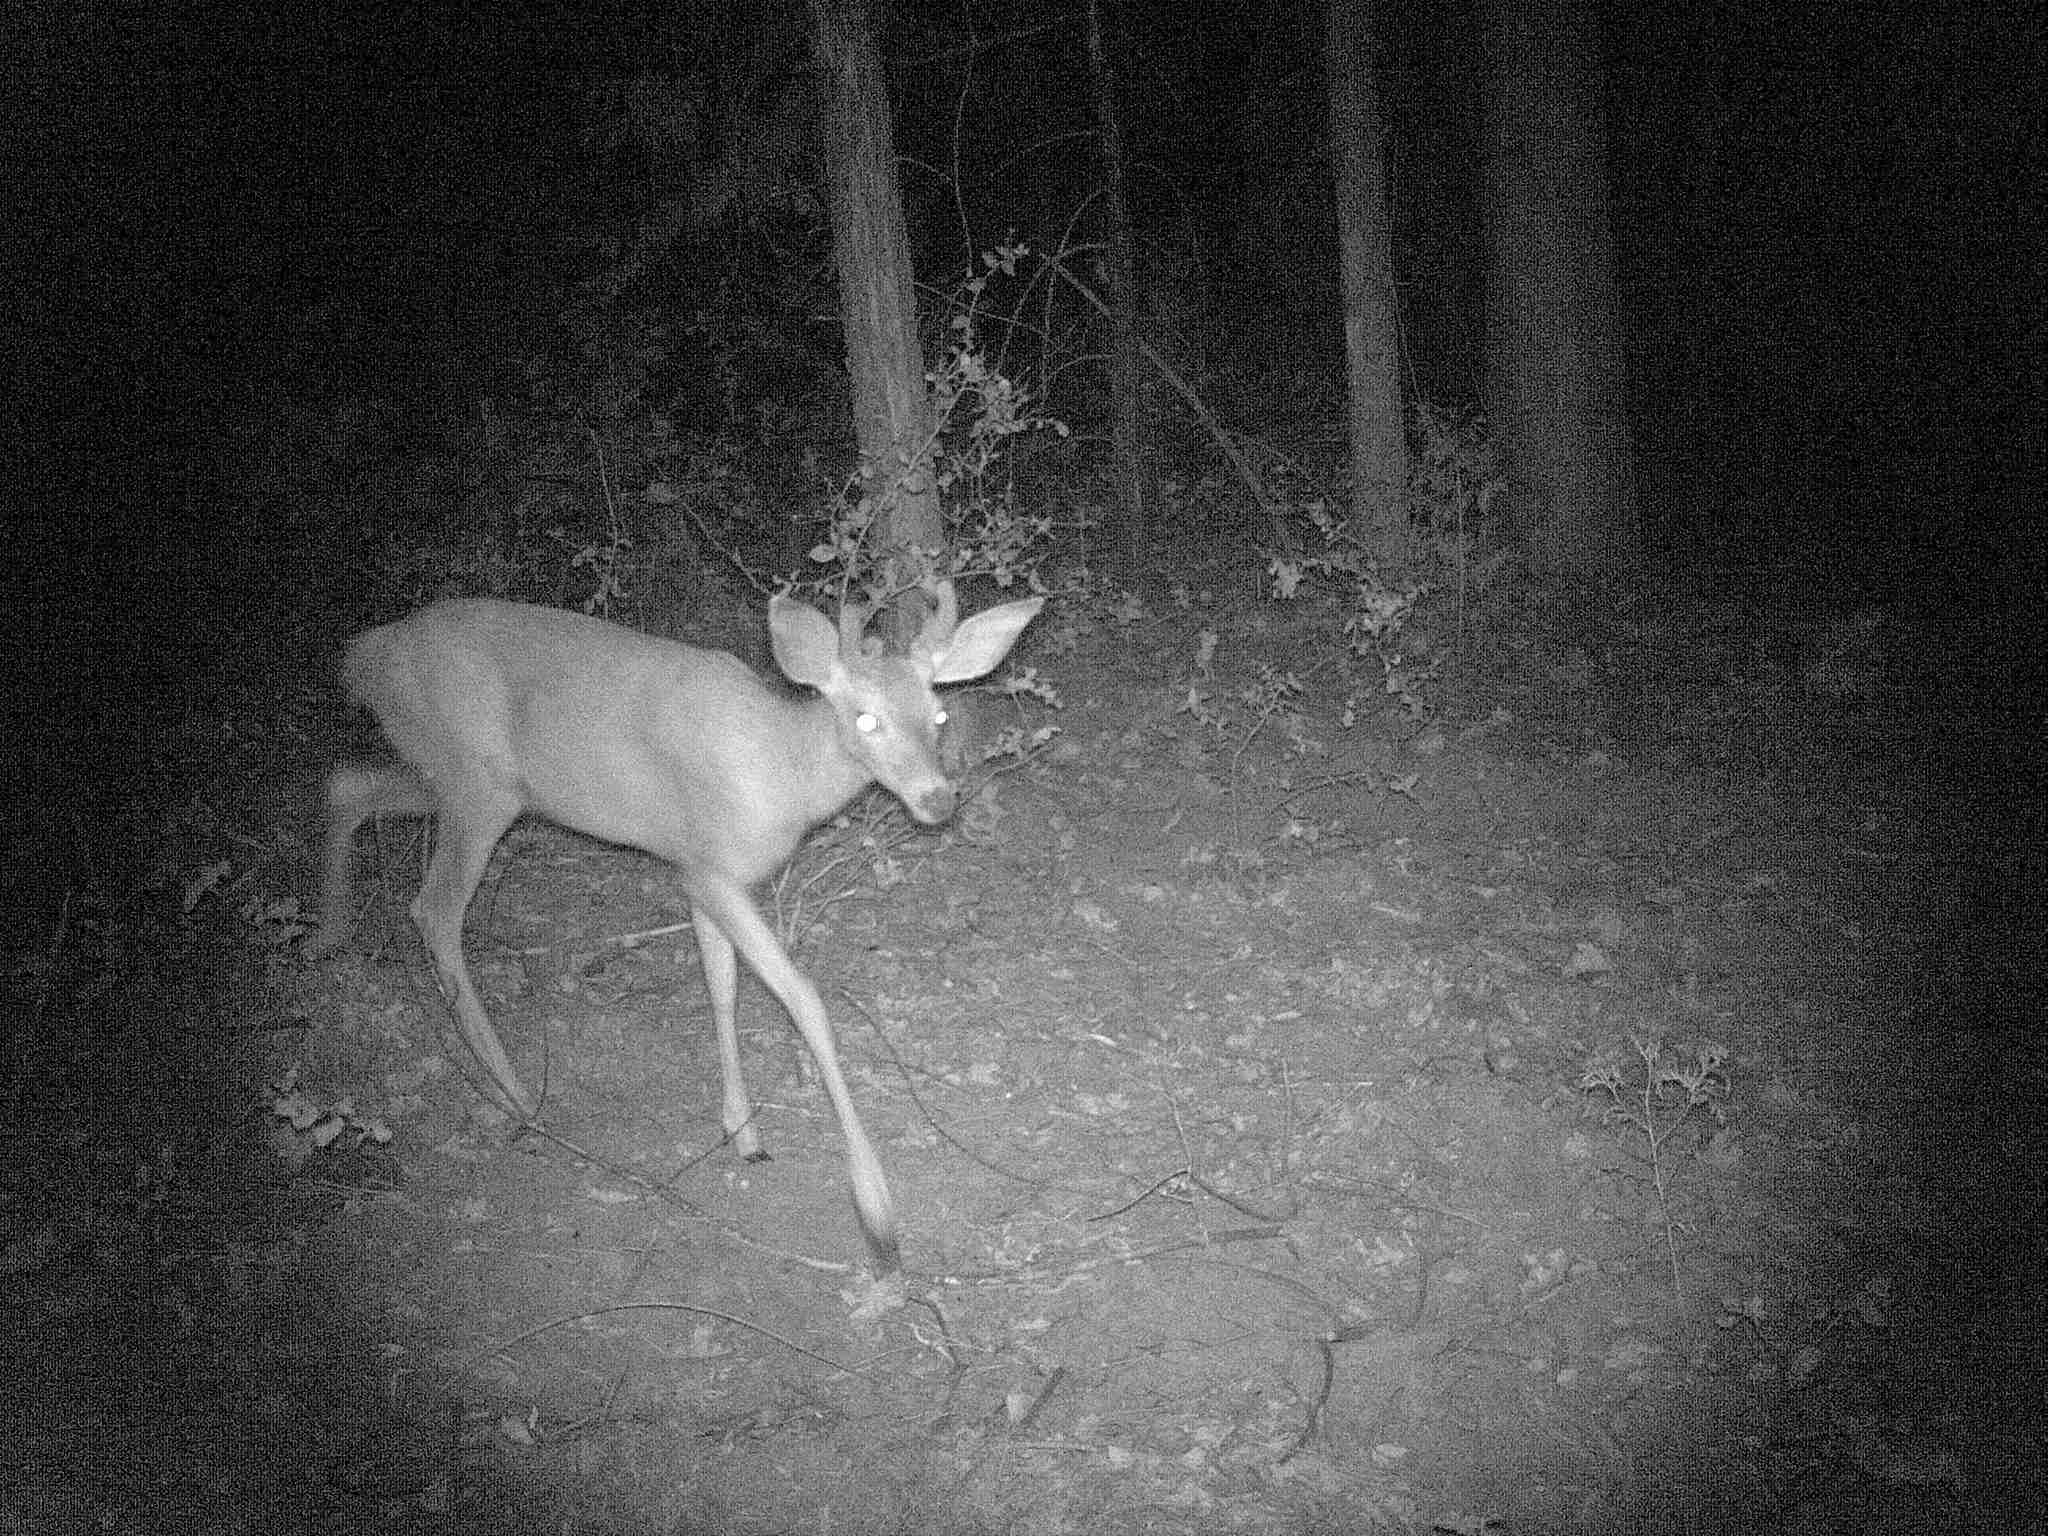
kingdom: Animalia
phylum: Chordata
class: Mammalia
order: Artiodactyla
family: Cervidae
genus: Odocoileus
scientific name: Odocoileus hemionus
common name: Mule deer
